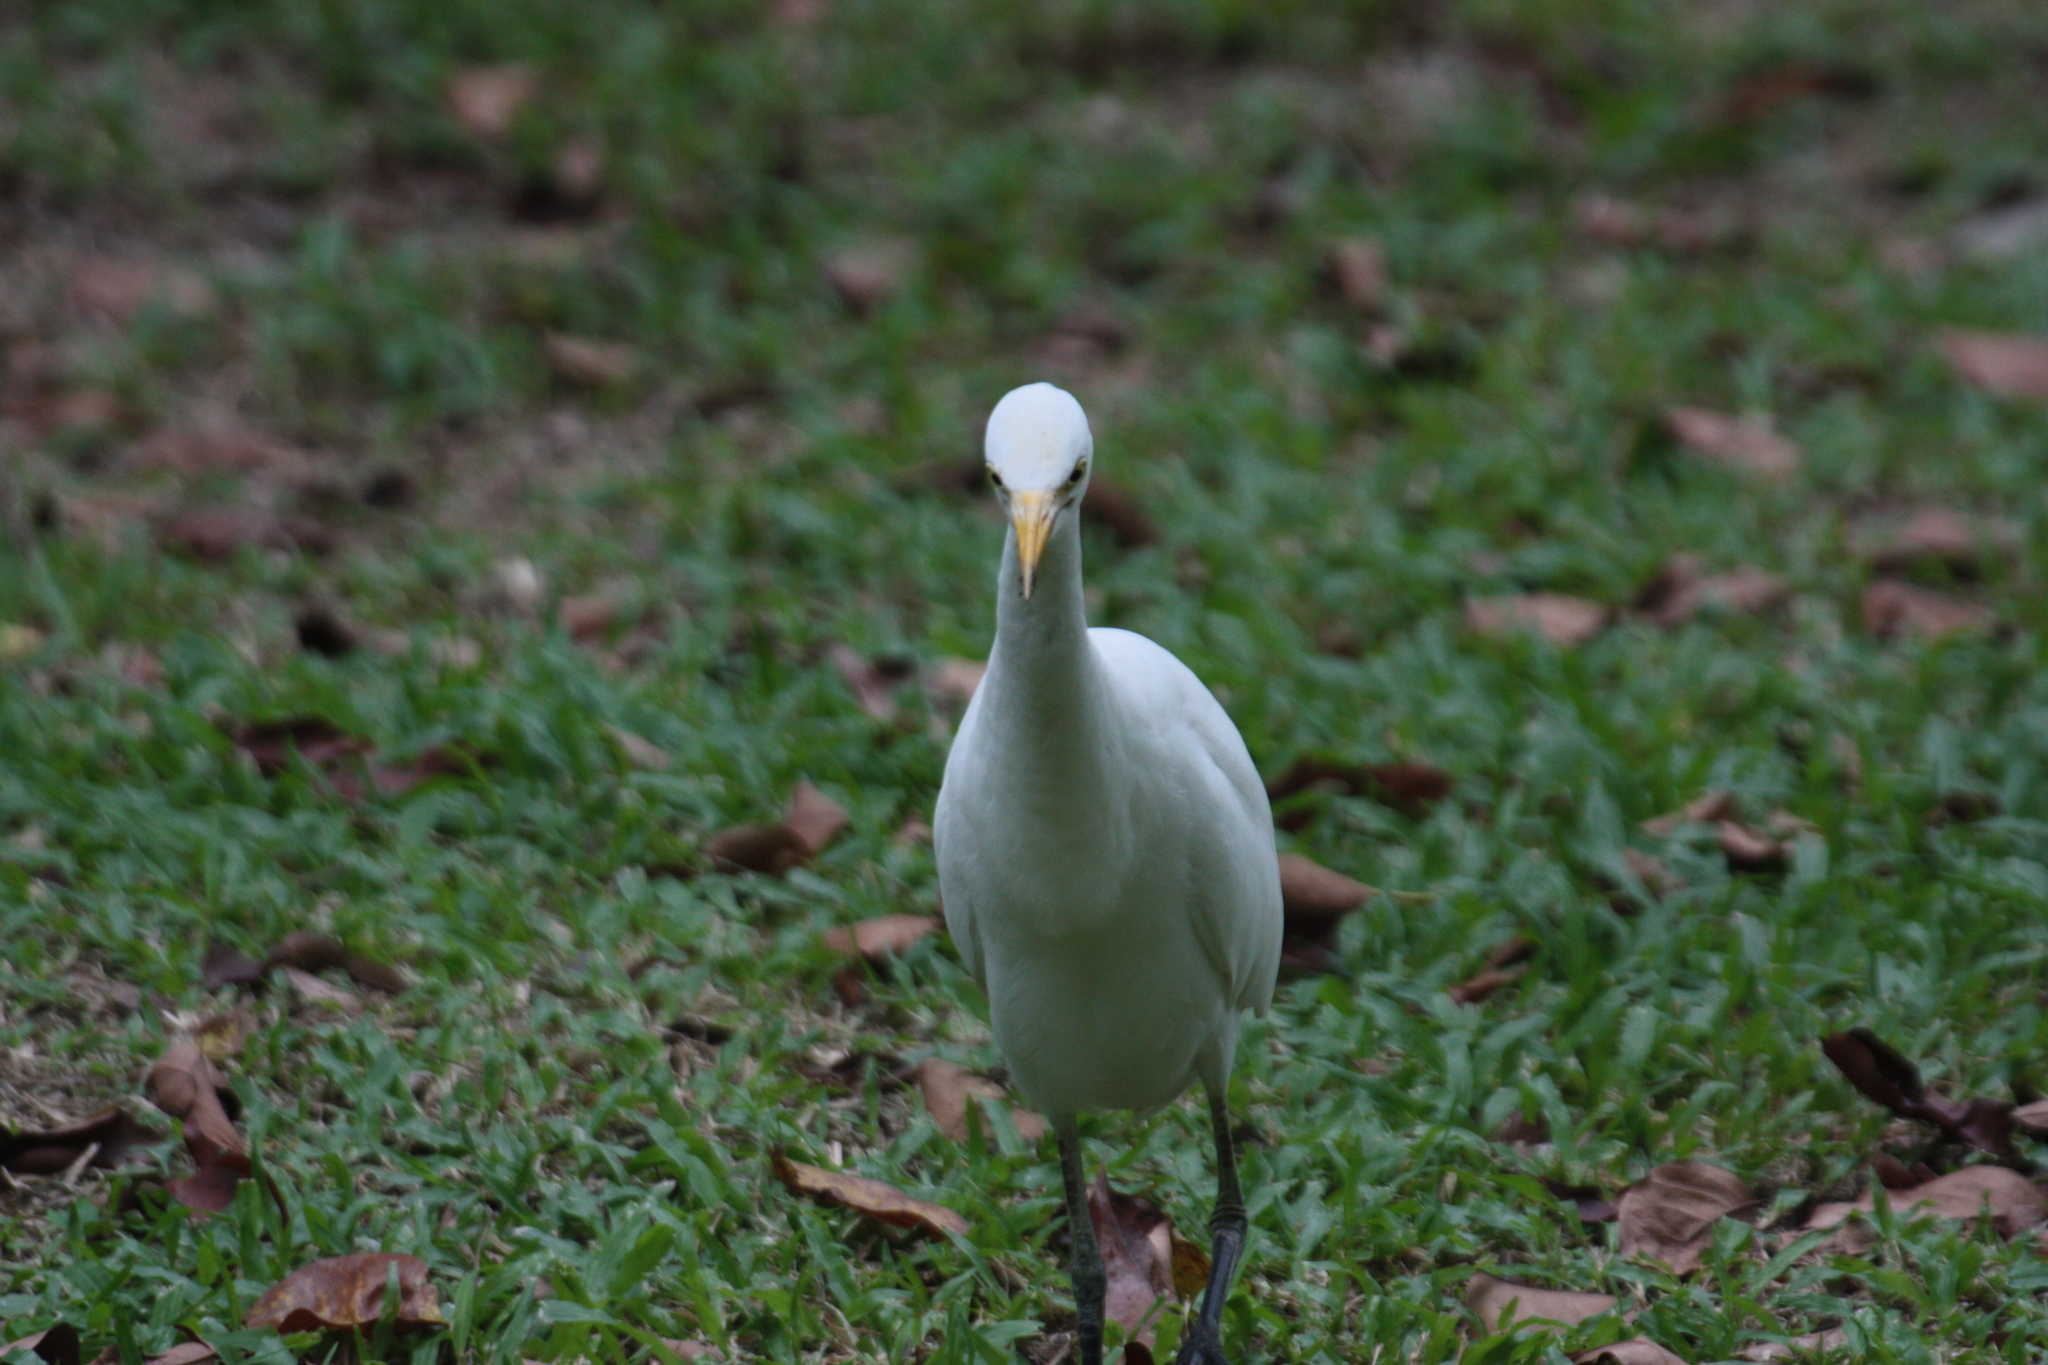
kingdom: Animalia
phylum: Chordata
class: Aves
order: Pelecaniformes
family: Ardeidae
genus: Bubulcus
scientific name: Bubulcus coromandus
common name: Eastern cattle egret
